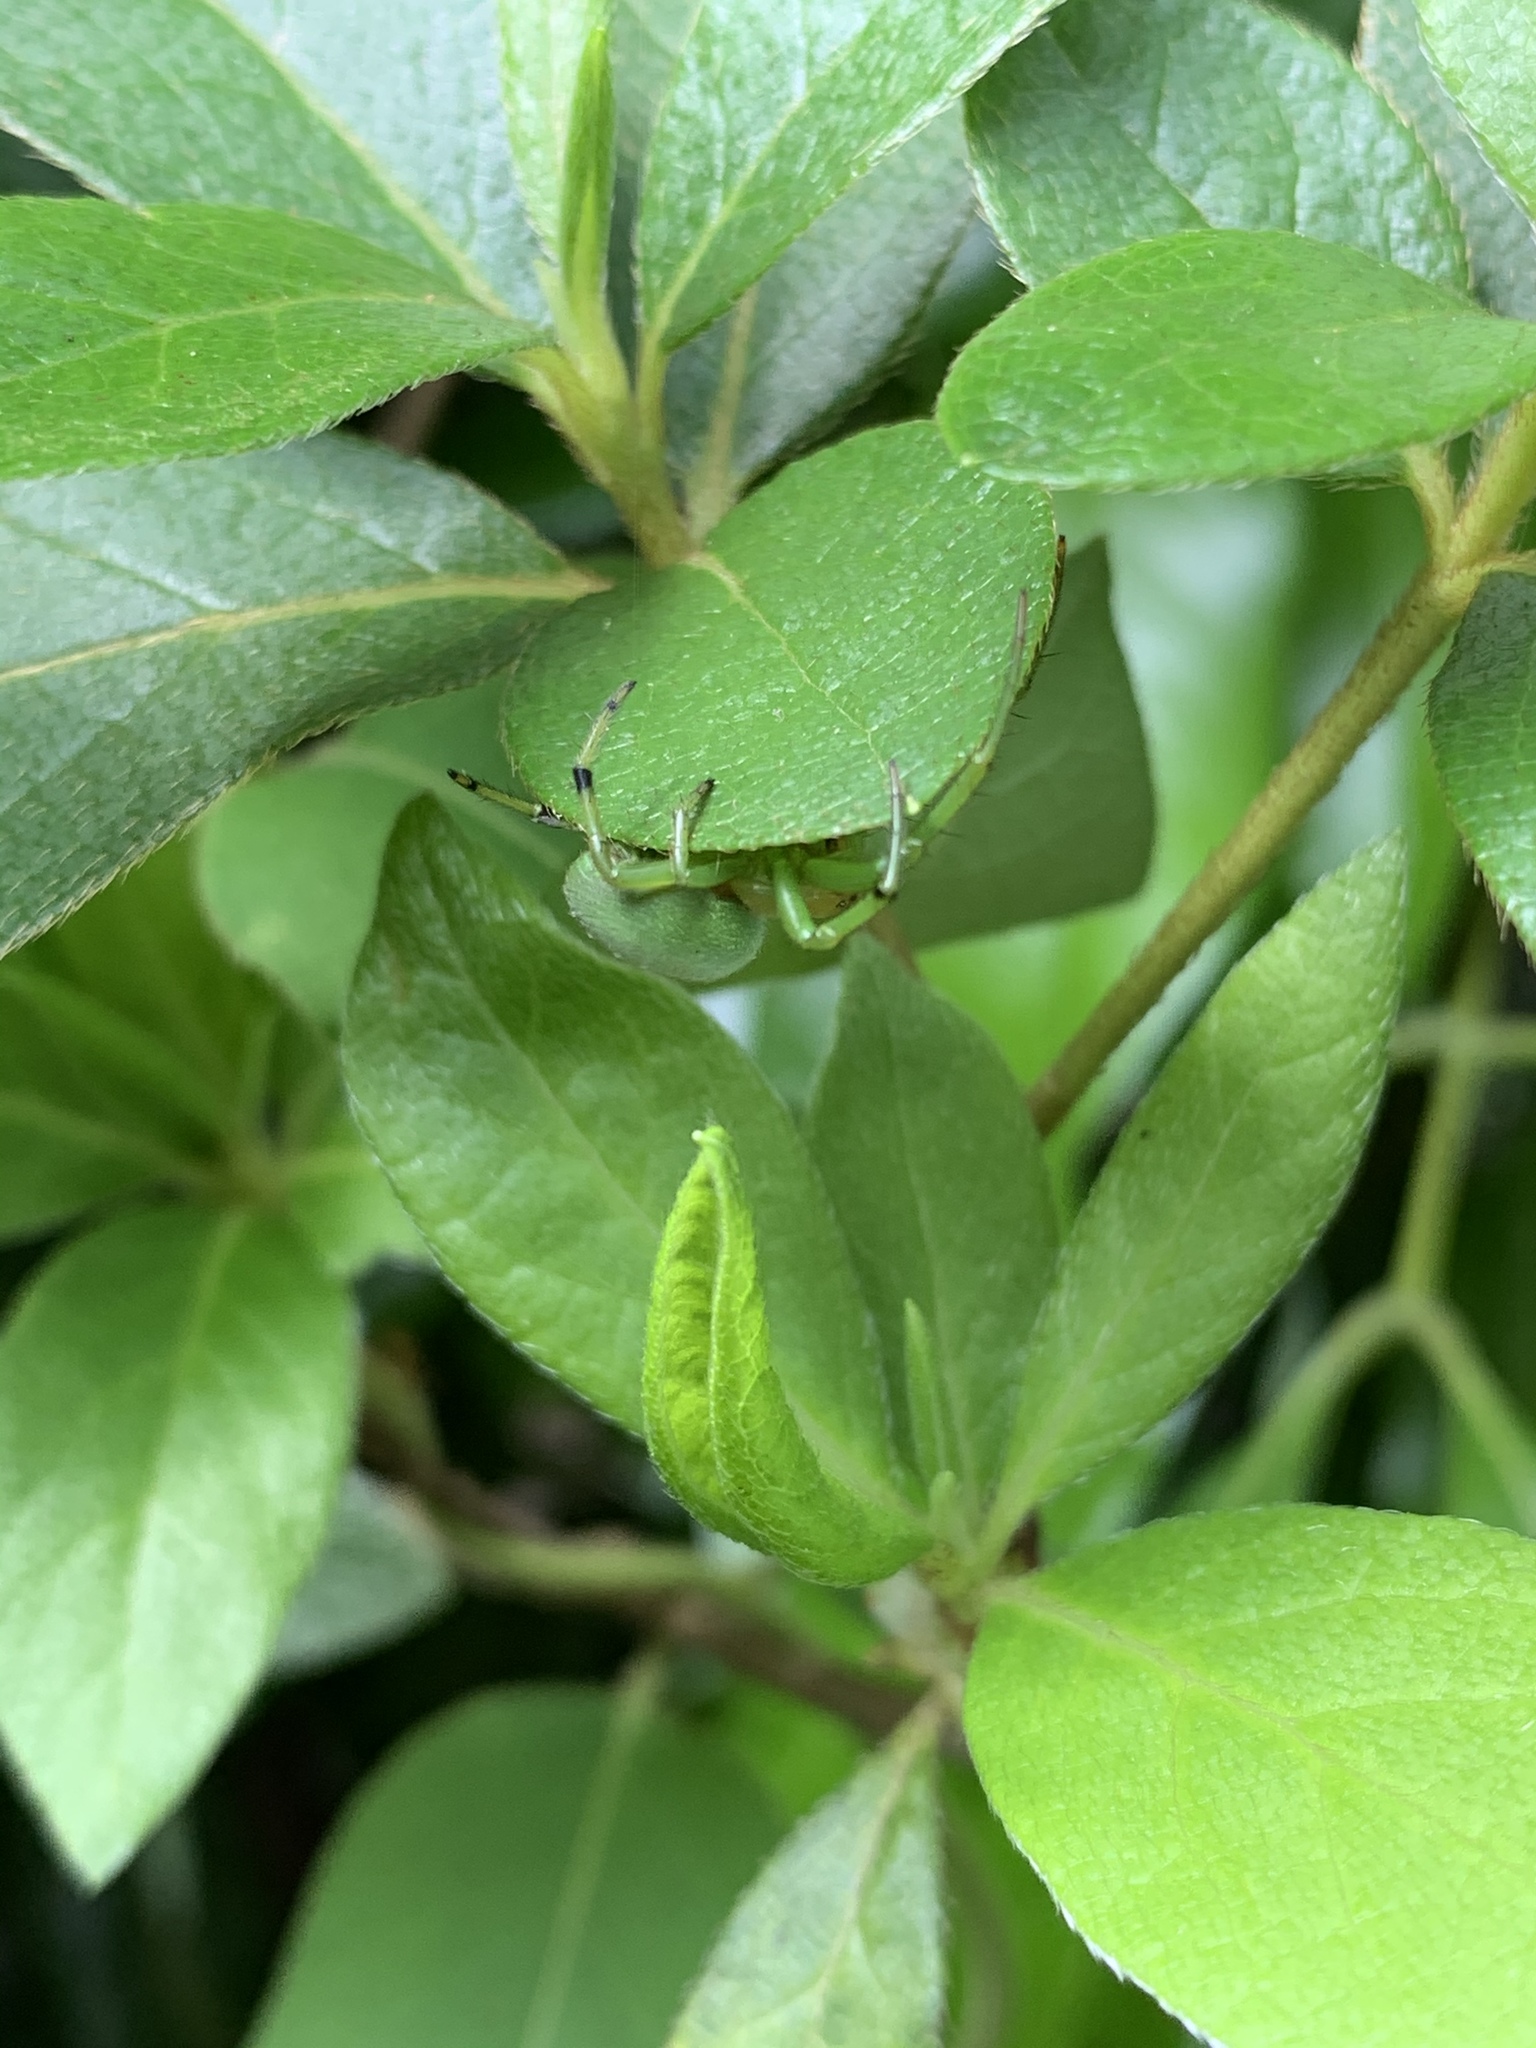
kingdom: Animalia
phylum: Arthropoda
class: Arachnida
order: Araneae
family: Araneidae
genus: Aoaraneus
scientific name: Aoaraneus pentagrammicus
